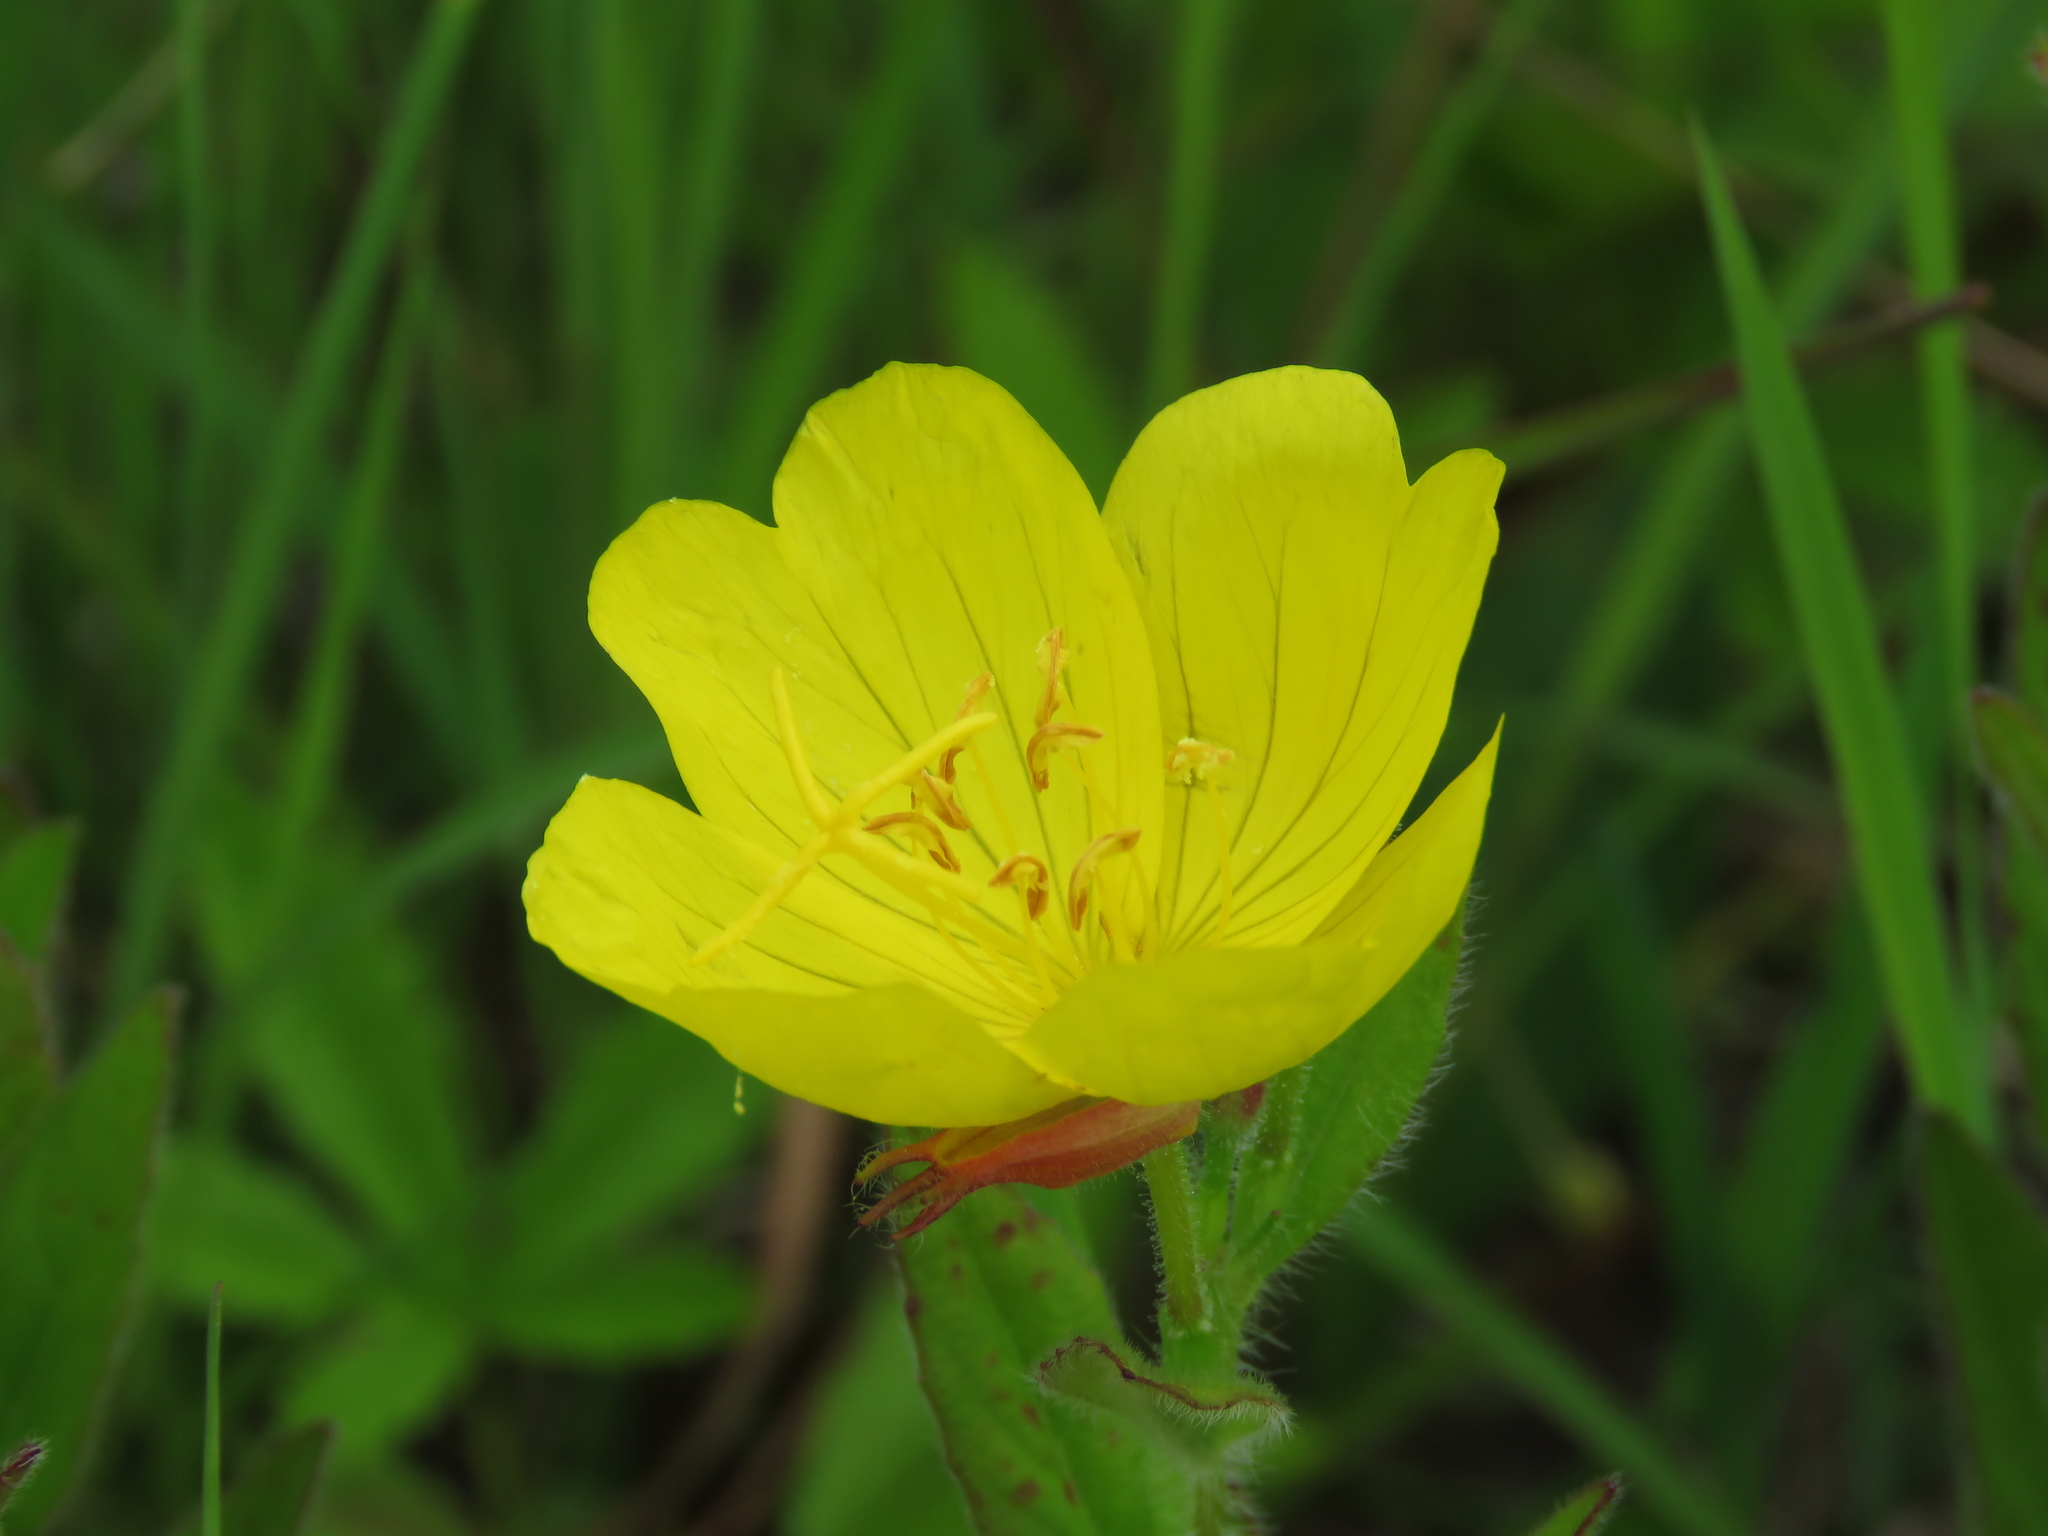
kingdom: Plantae
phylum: Tracheophyta
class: Magnoliopsida
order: Myrtales
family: Onagraceae
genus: Oenothera
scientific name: Oenothera pilosella
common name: Finely-pilose evening-primrose
